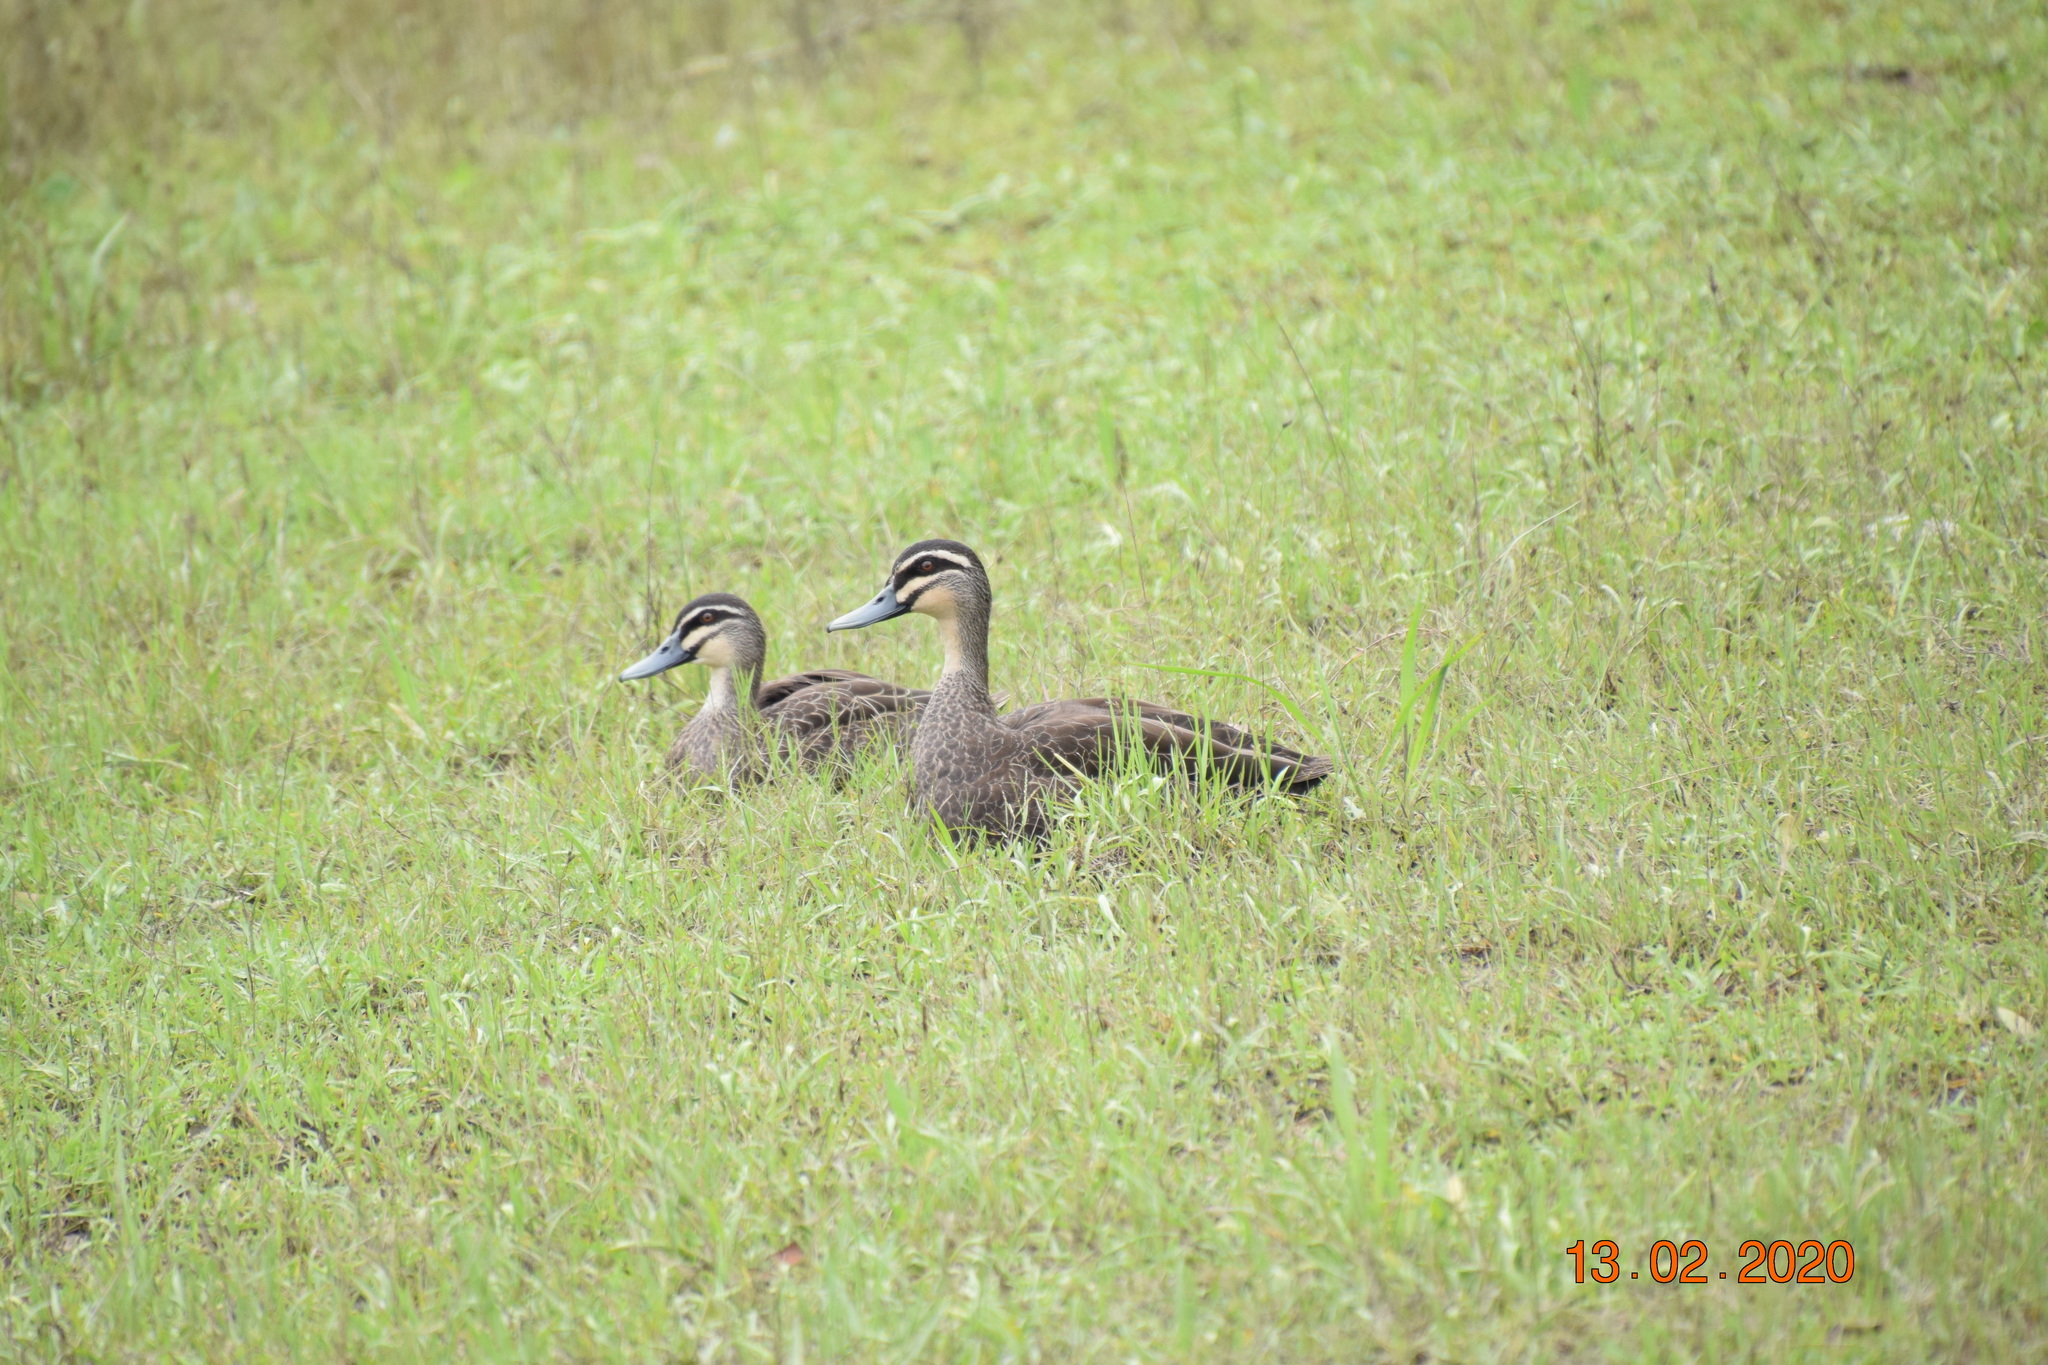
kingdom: Animalia
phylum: Chordata
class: Aves
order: Anseriformes
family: Anatidae
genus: Anas
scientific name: Anas superciliosa
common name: Pacific black duck
